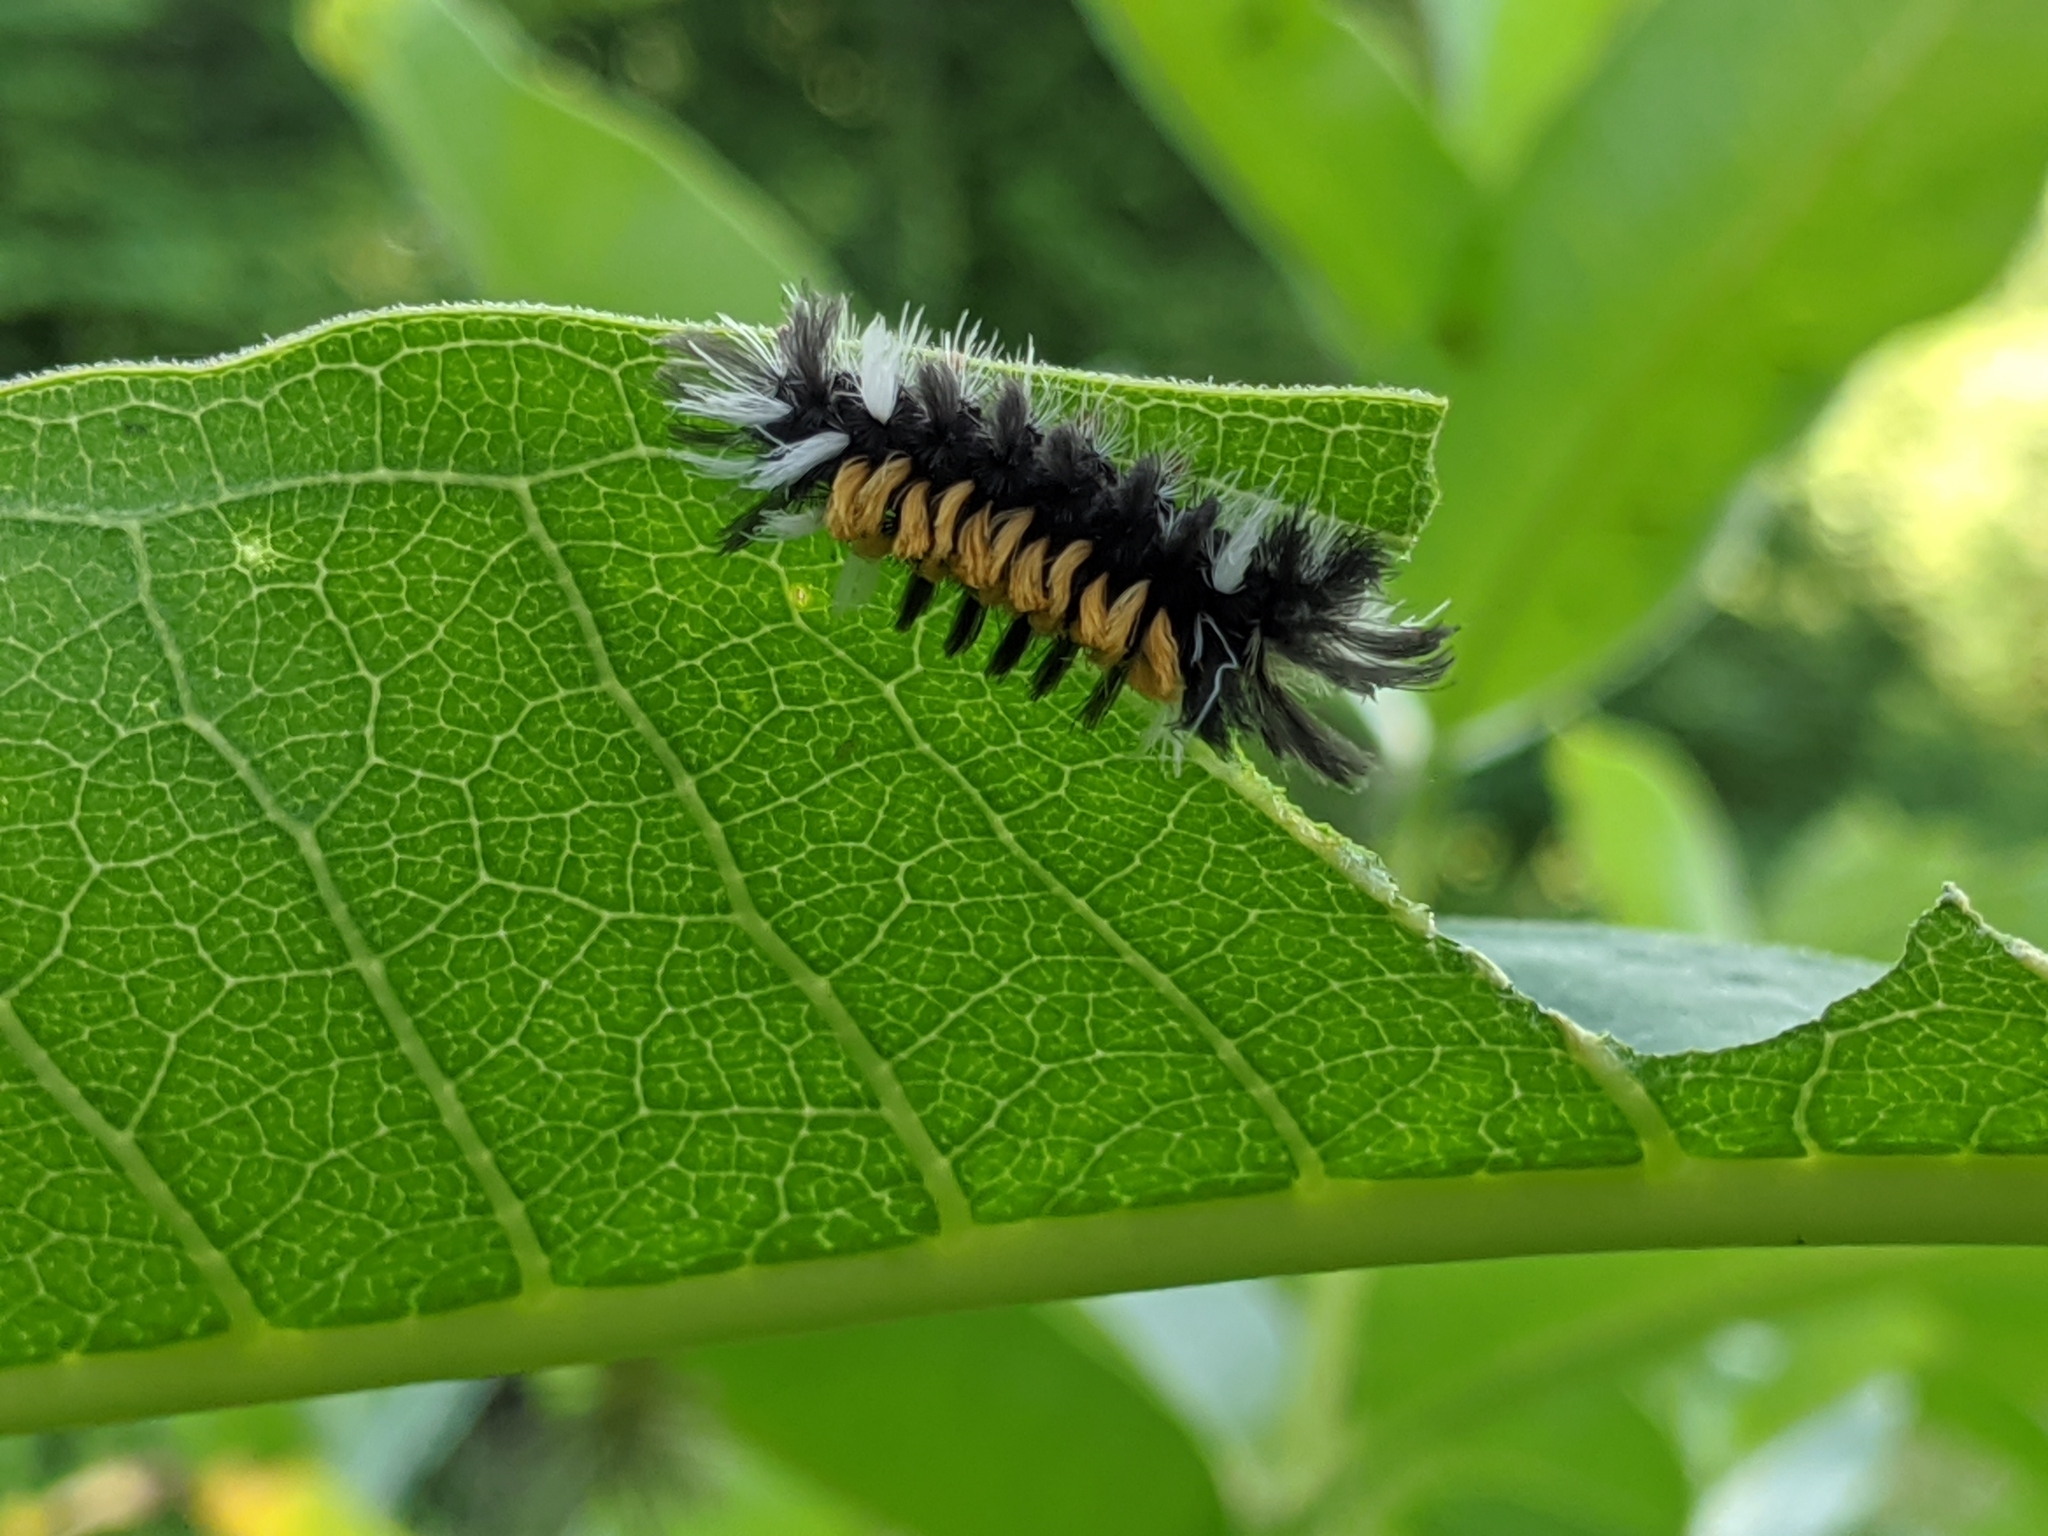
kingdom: Animalia
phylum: Arthropoda
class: Insecta
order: Lepidoptera
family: Erebidae
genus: Euchaetes
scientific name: Euchaetes egle
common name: Milkweed tussock moth
